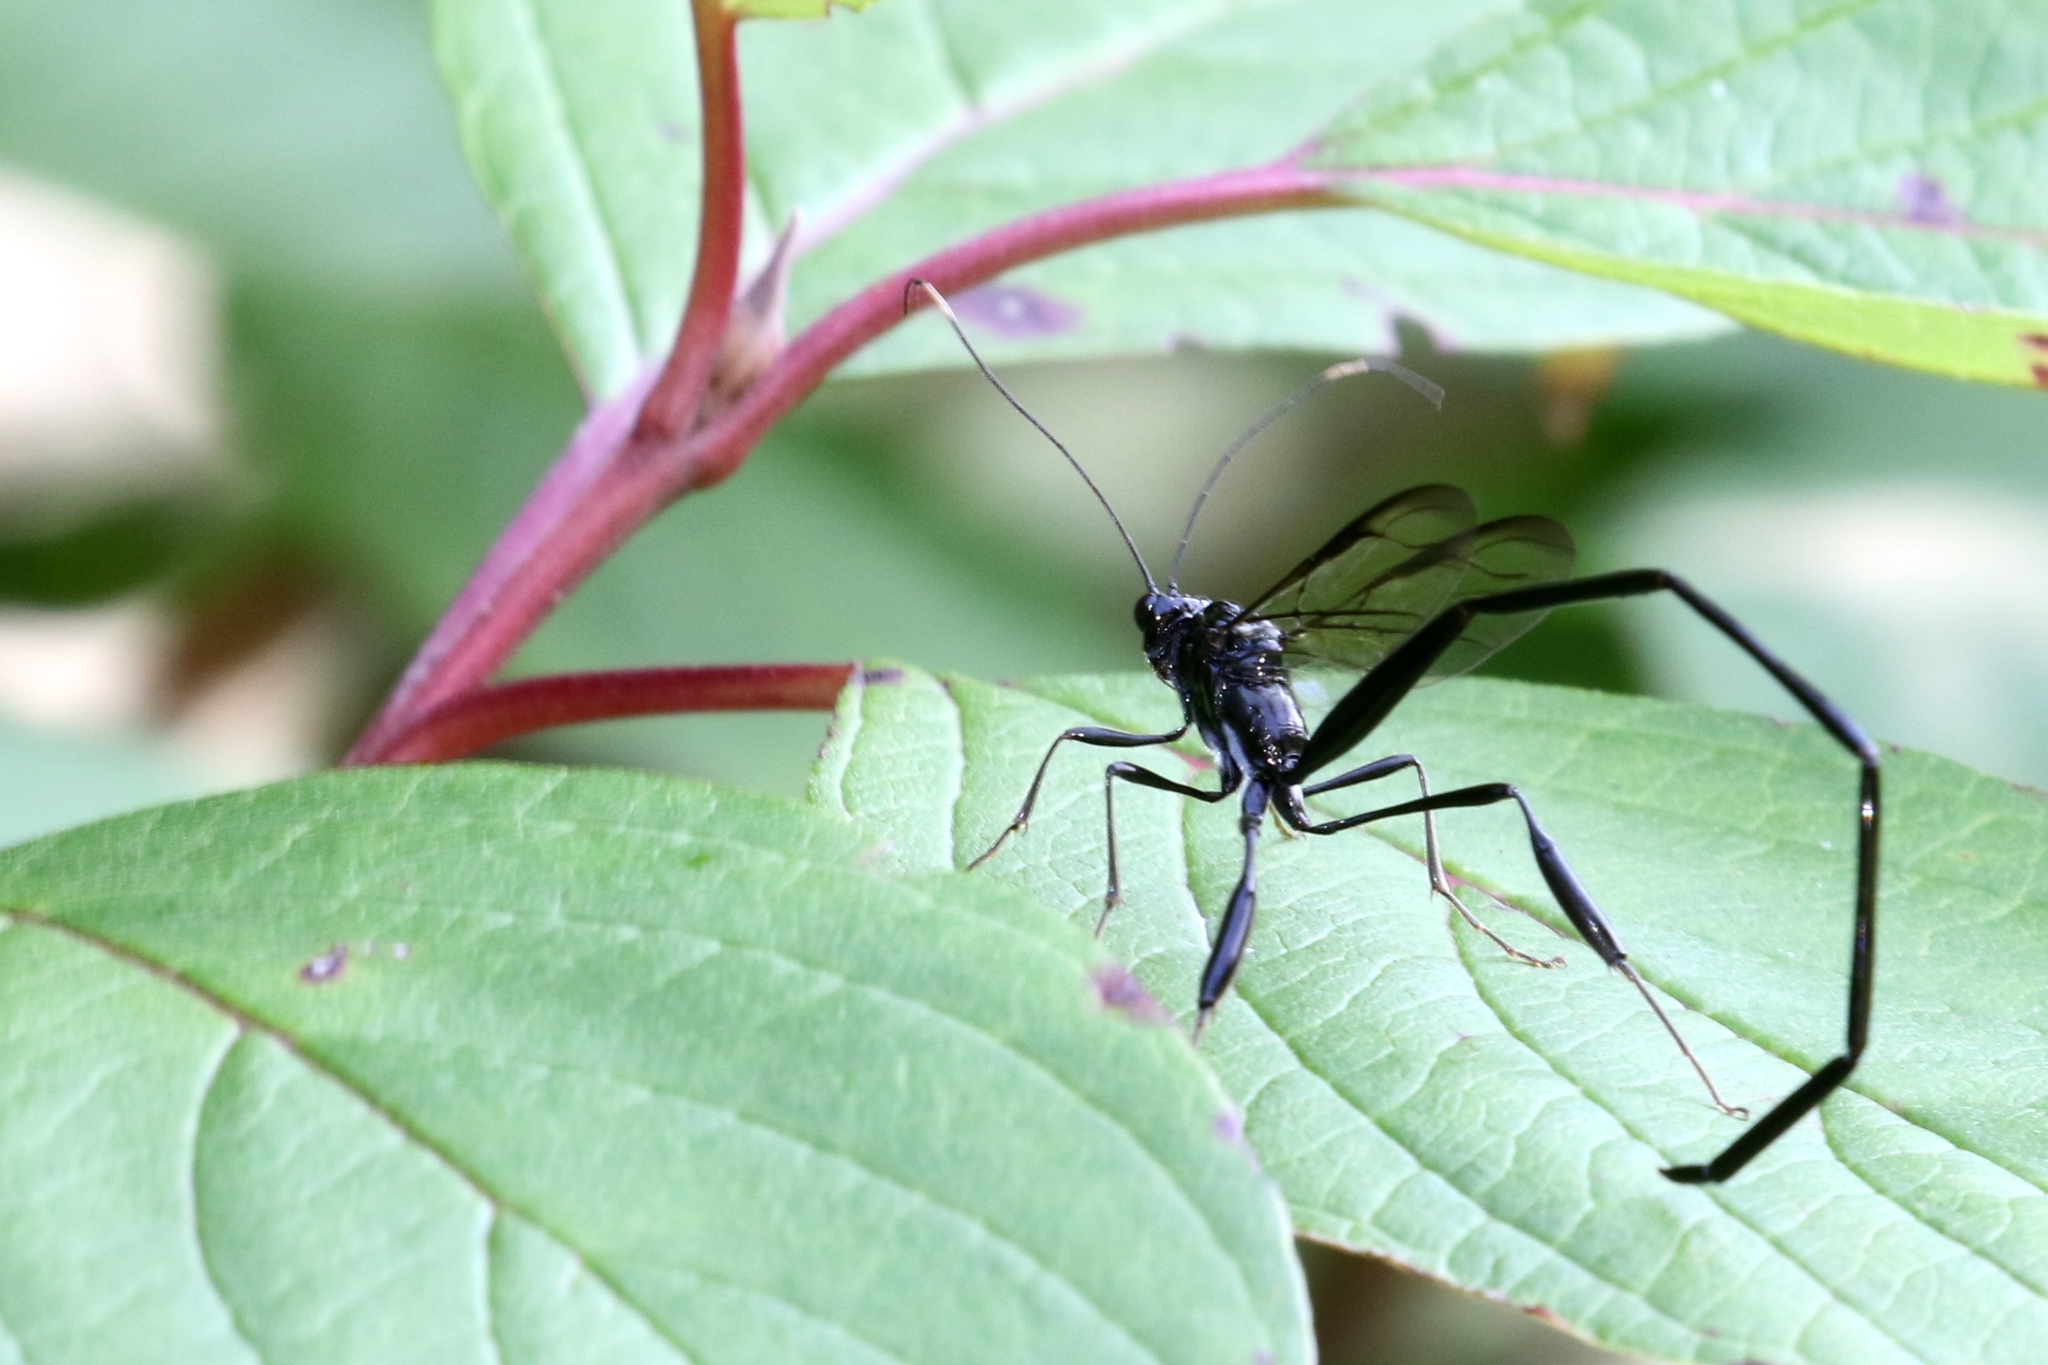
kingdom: Animalia
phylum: Arthropoda
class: Insecta
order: Hymenoptera
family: Pelecinidae
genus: Pelecinus
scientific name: Pelecinus polyturator
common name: American pelecinid wasp
